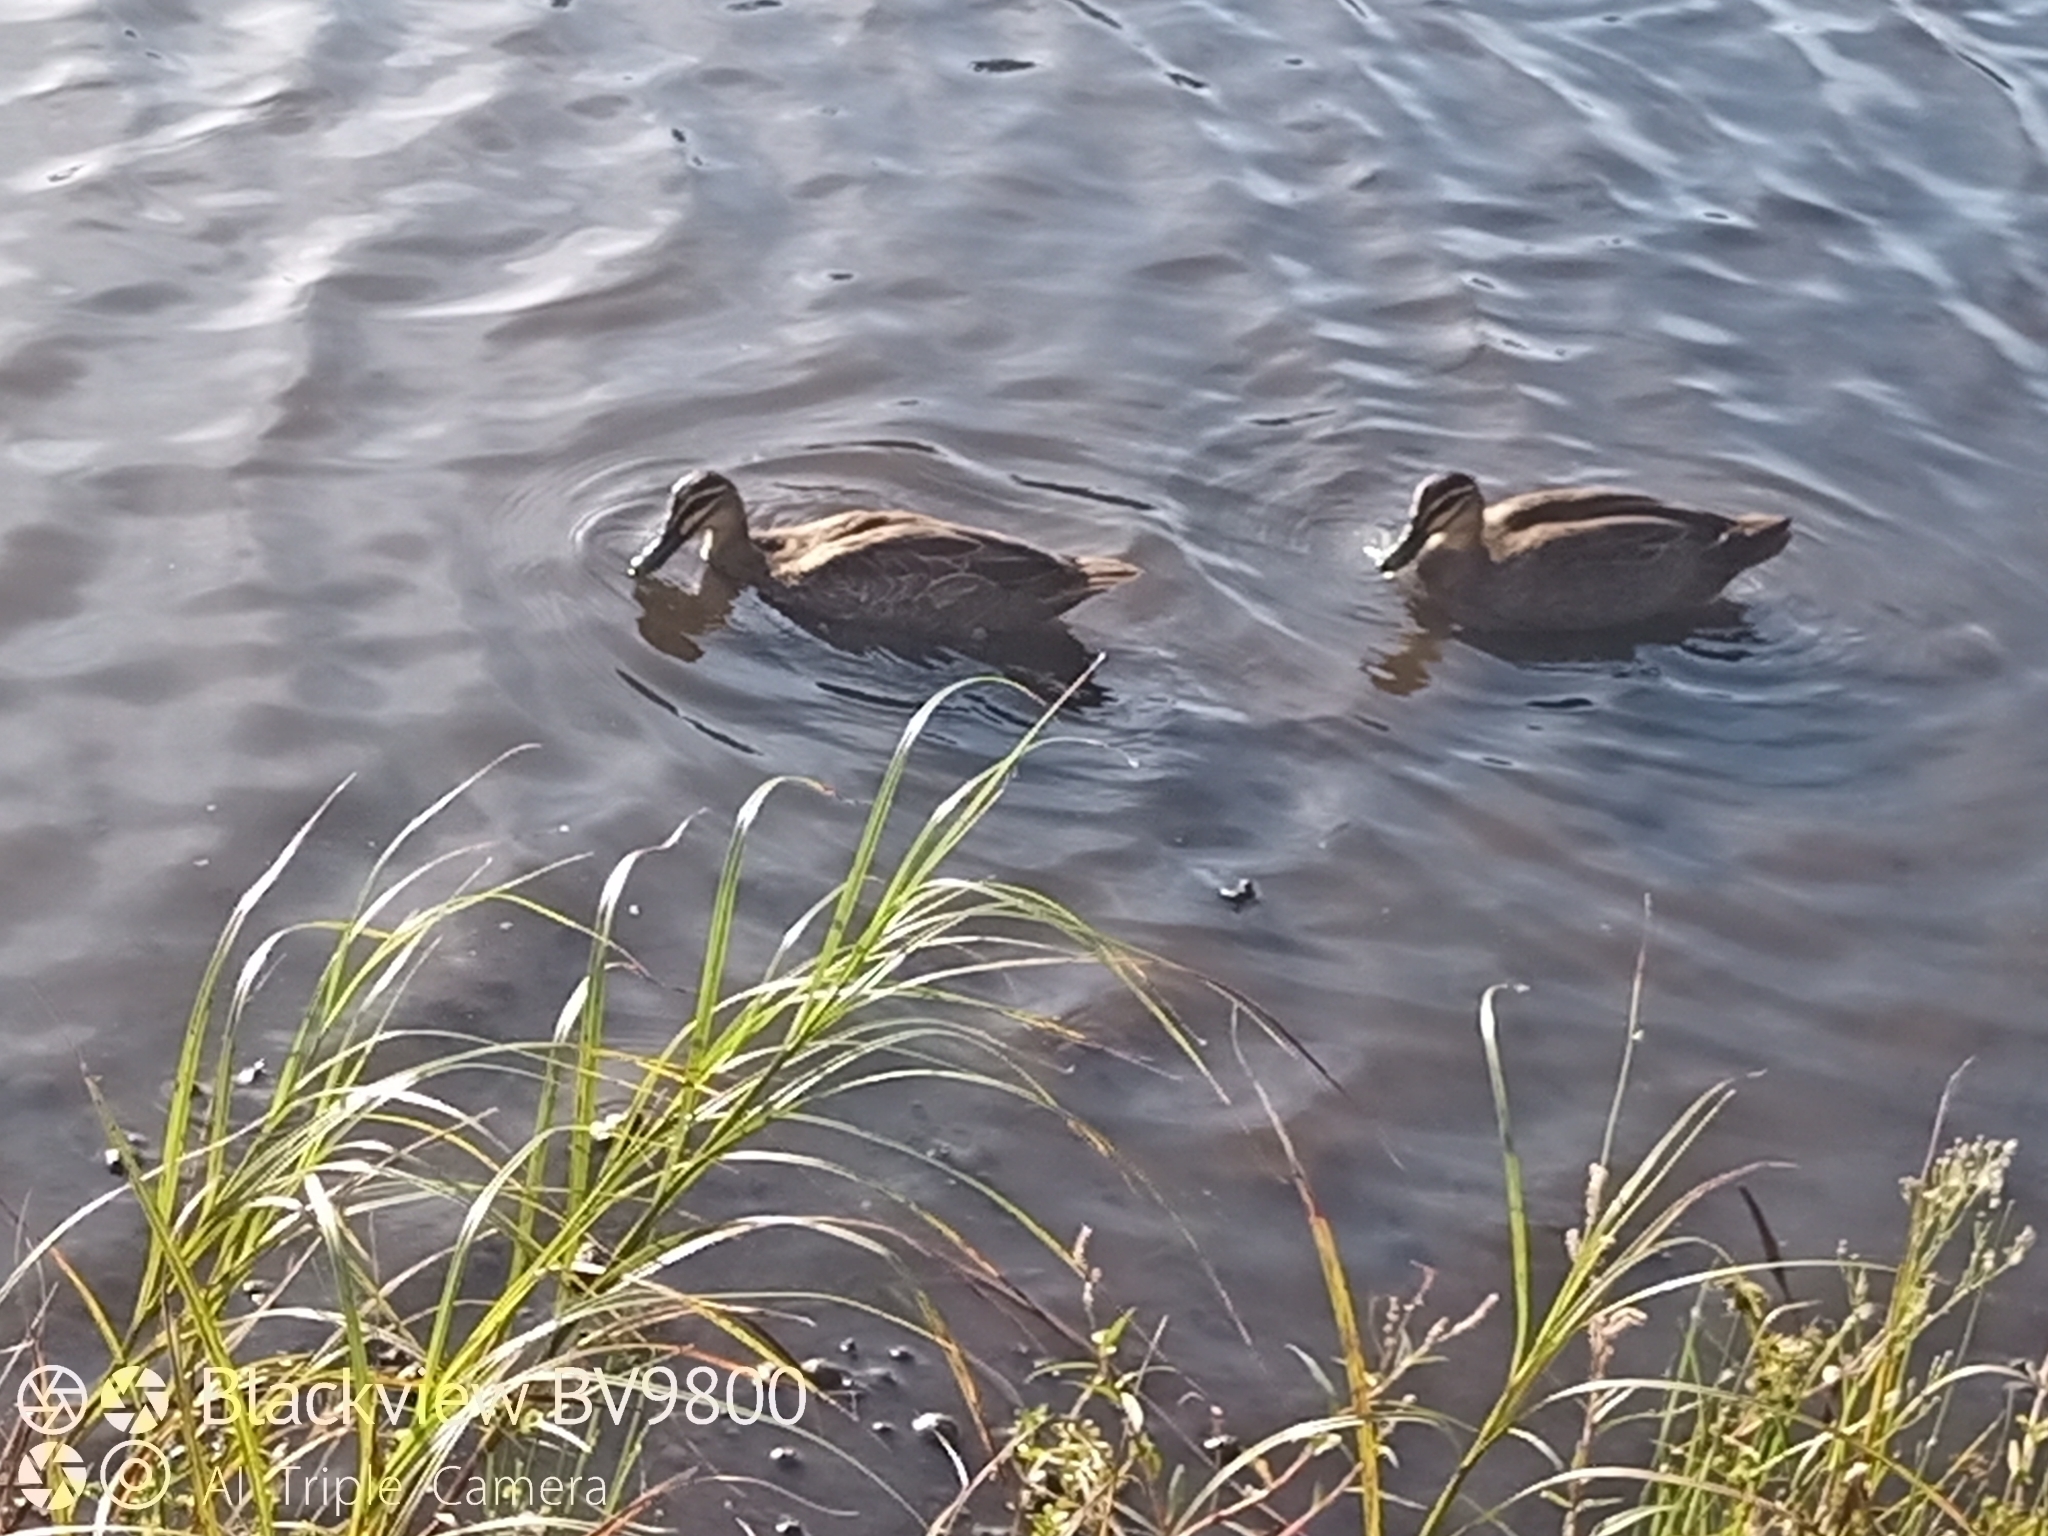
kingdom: Animalia
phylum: Chordata
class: Aves
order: Anseriformes
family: Anatidae
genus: Anas
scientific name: Anas superciliosa
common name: Pacific black duck
